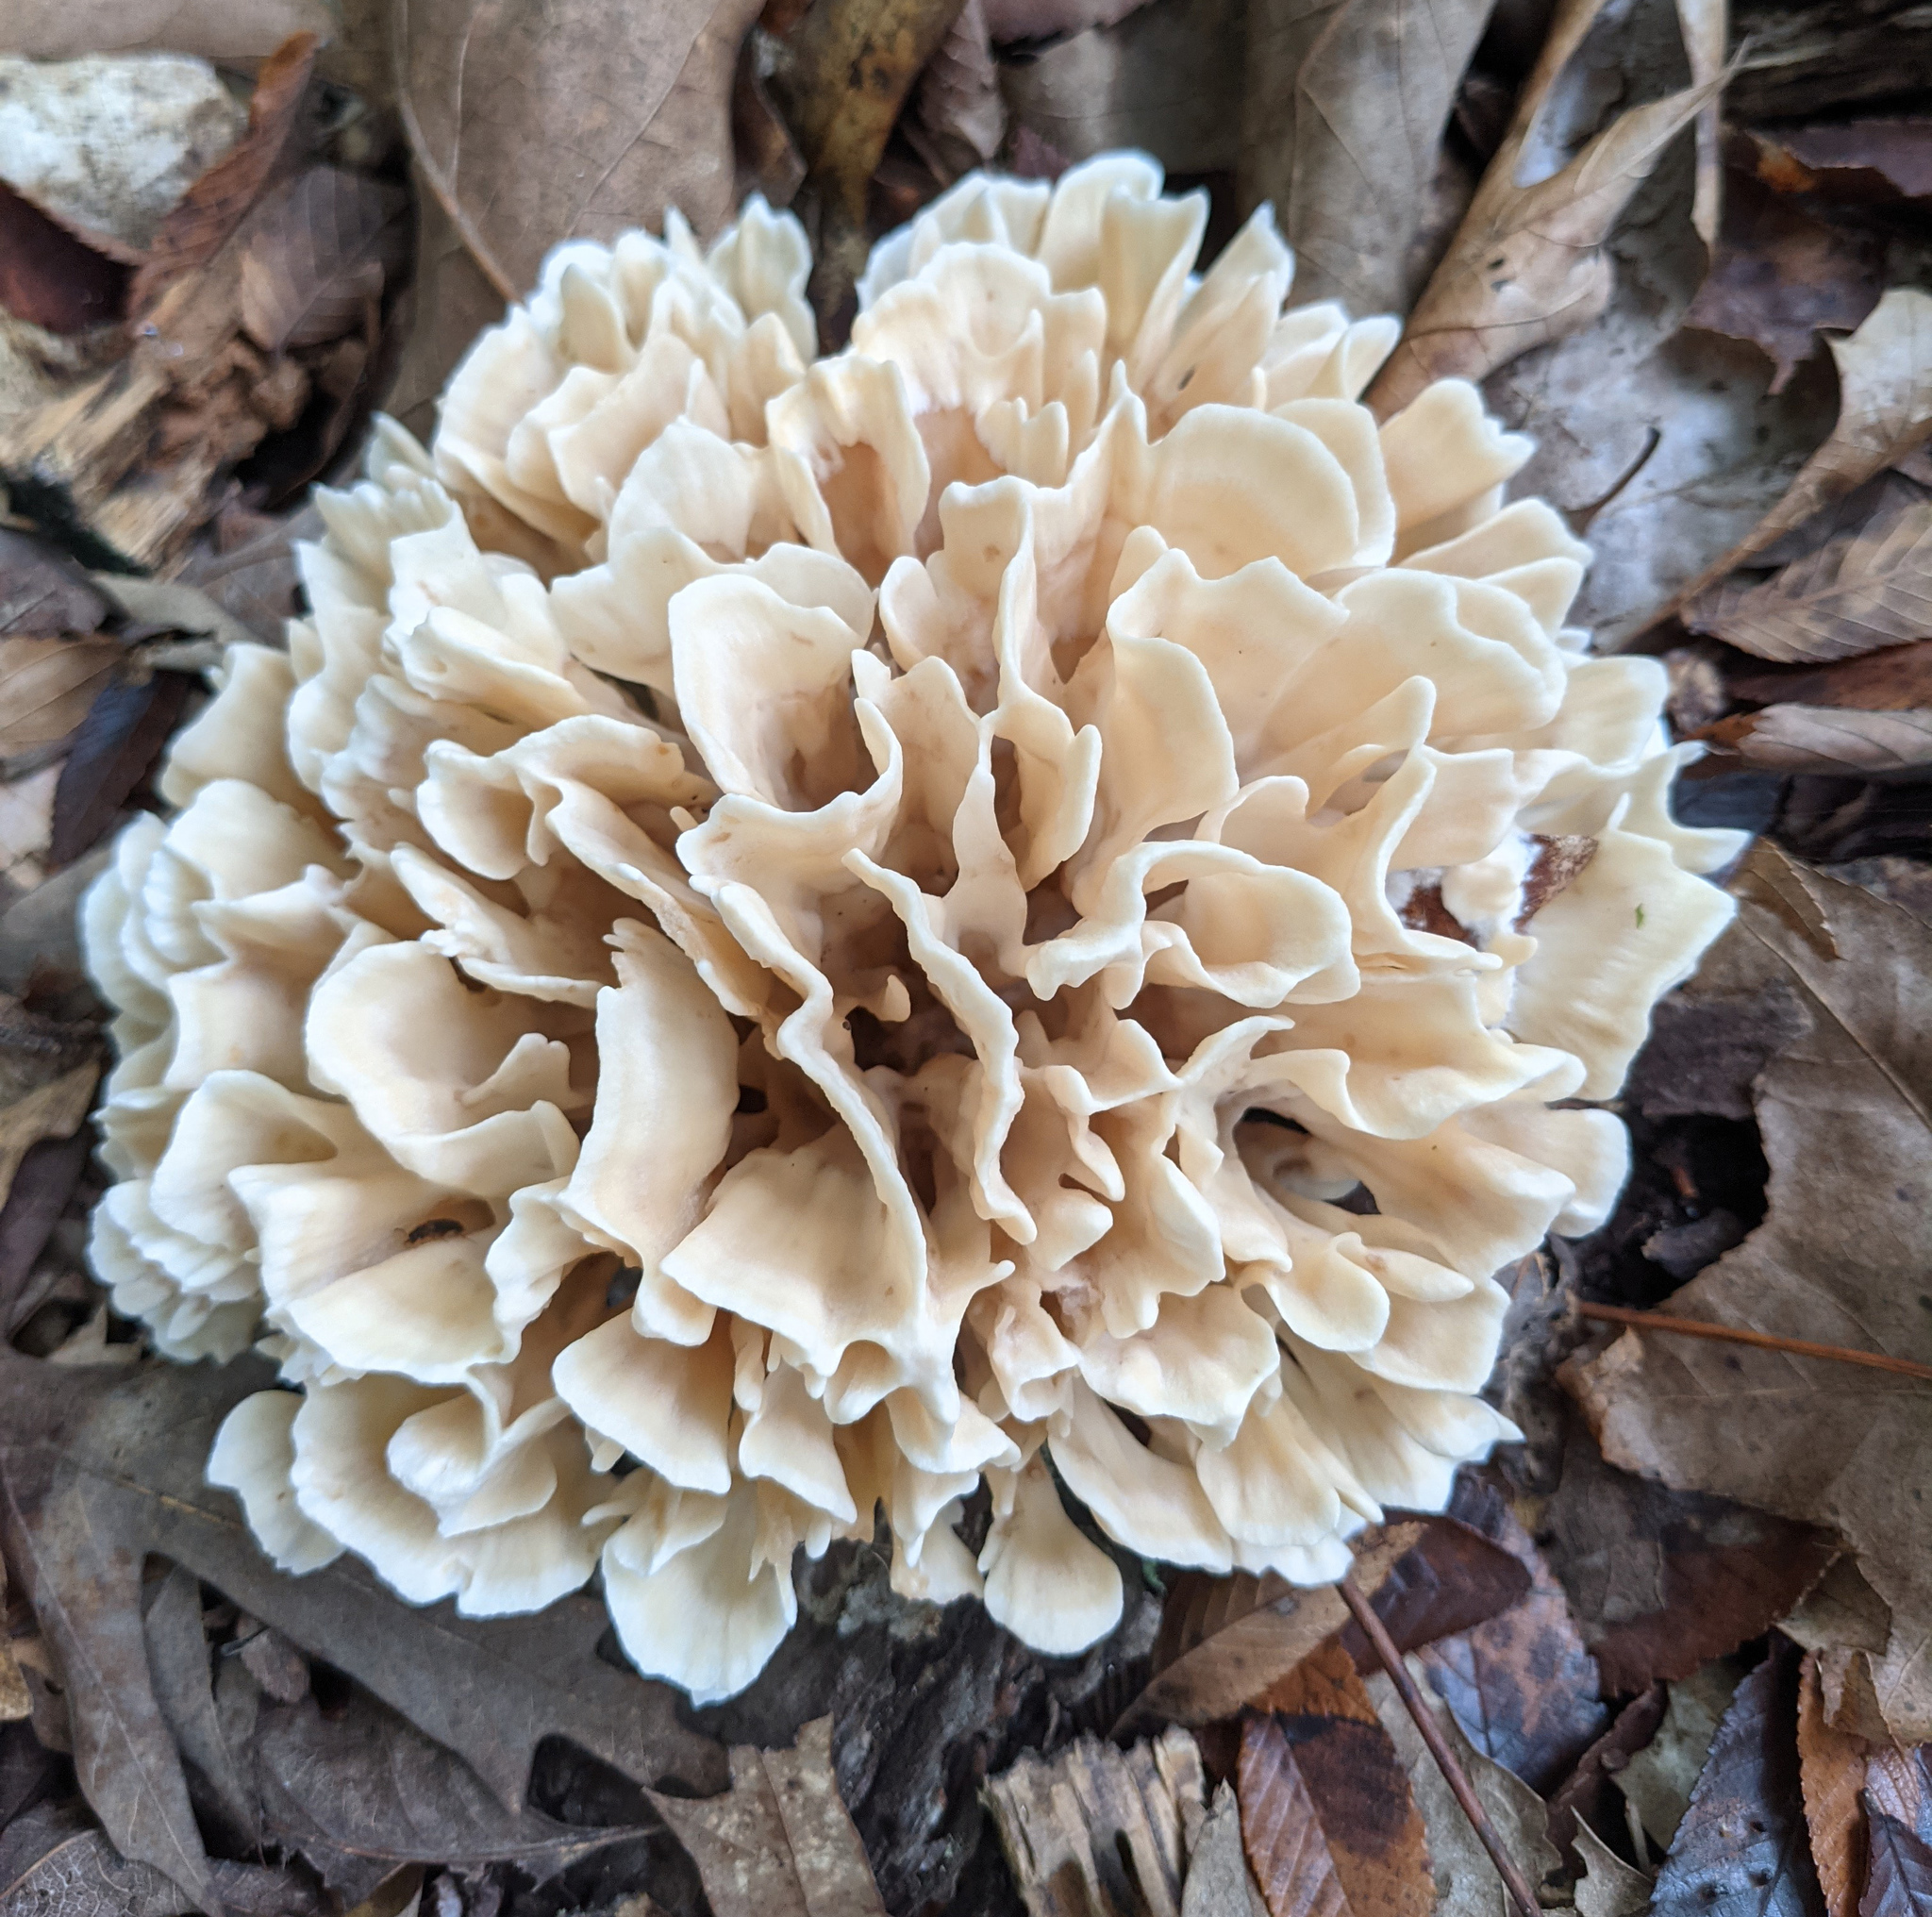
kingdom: Fungi
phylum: Basidiomycota
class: Agaricomycetes
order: Polyporales
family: Sparassidaceae
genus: Sparassis
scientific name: Sparassis spathulata
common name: Eastern cauliflower mushroom
